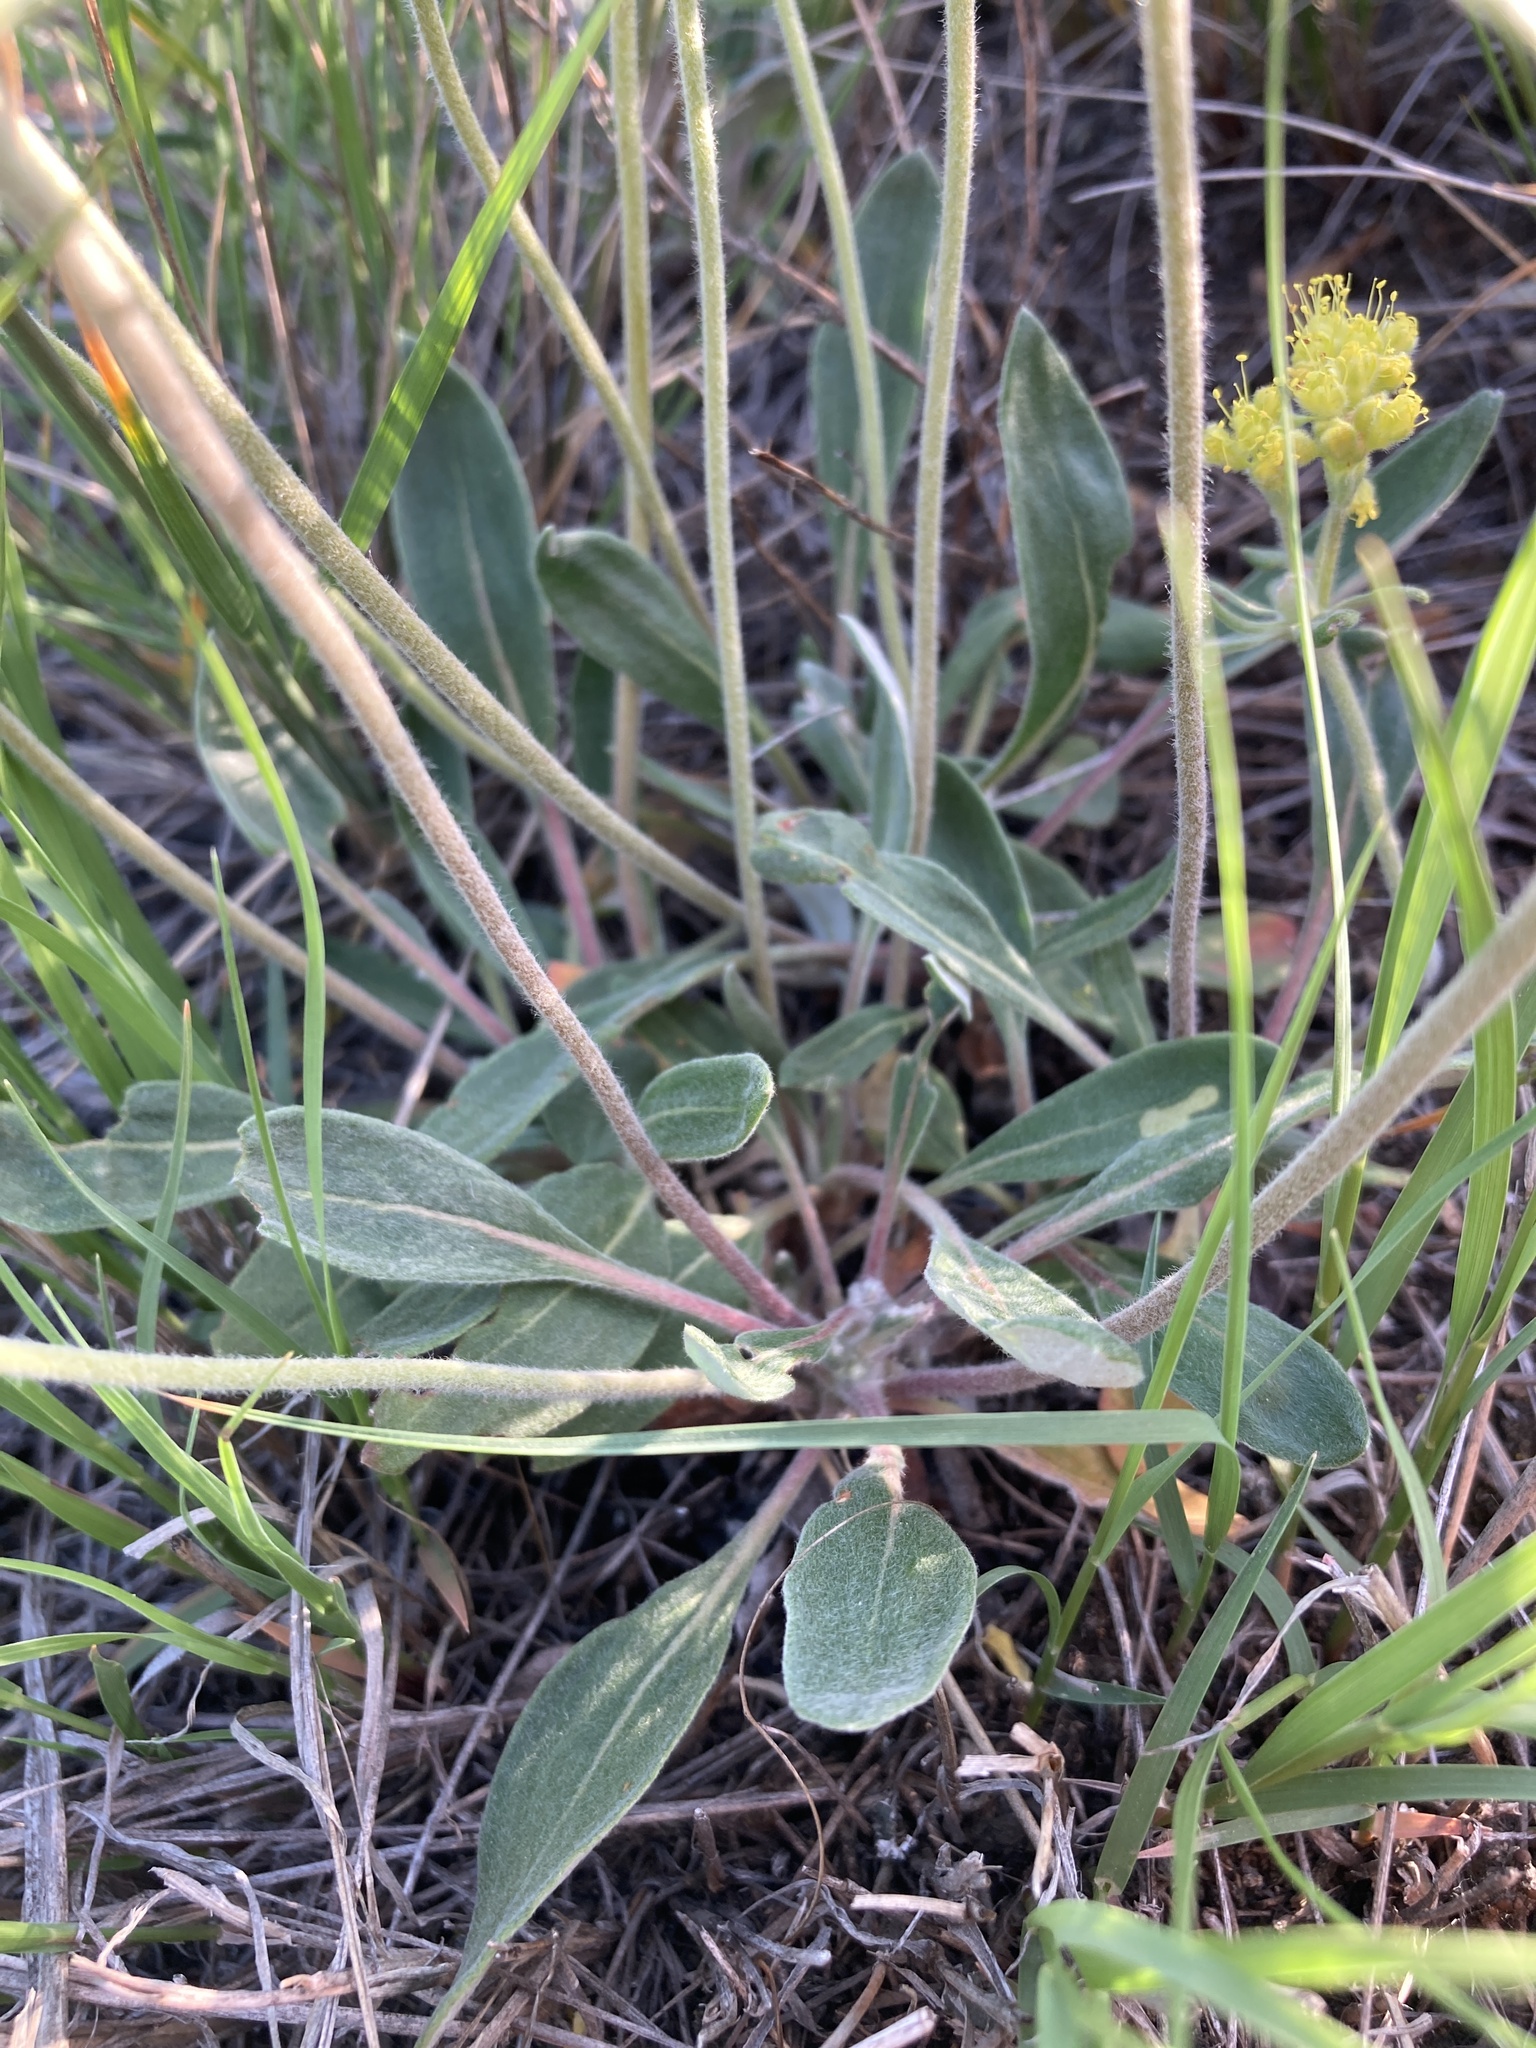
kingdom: Plantae
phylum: Tracheophyta
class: Magnoliopsida
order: Caryophyllales
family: Polygonaceae
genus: Eriogonum
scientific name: Eriogonum flavum
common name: Alpine golden wild buckwheat
